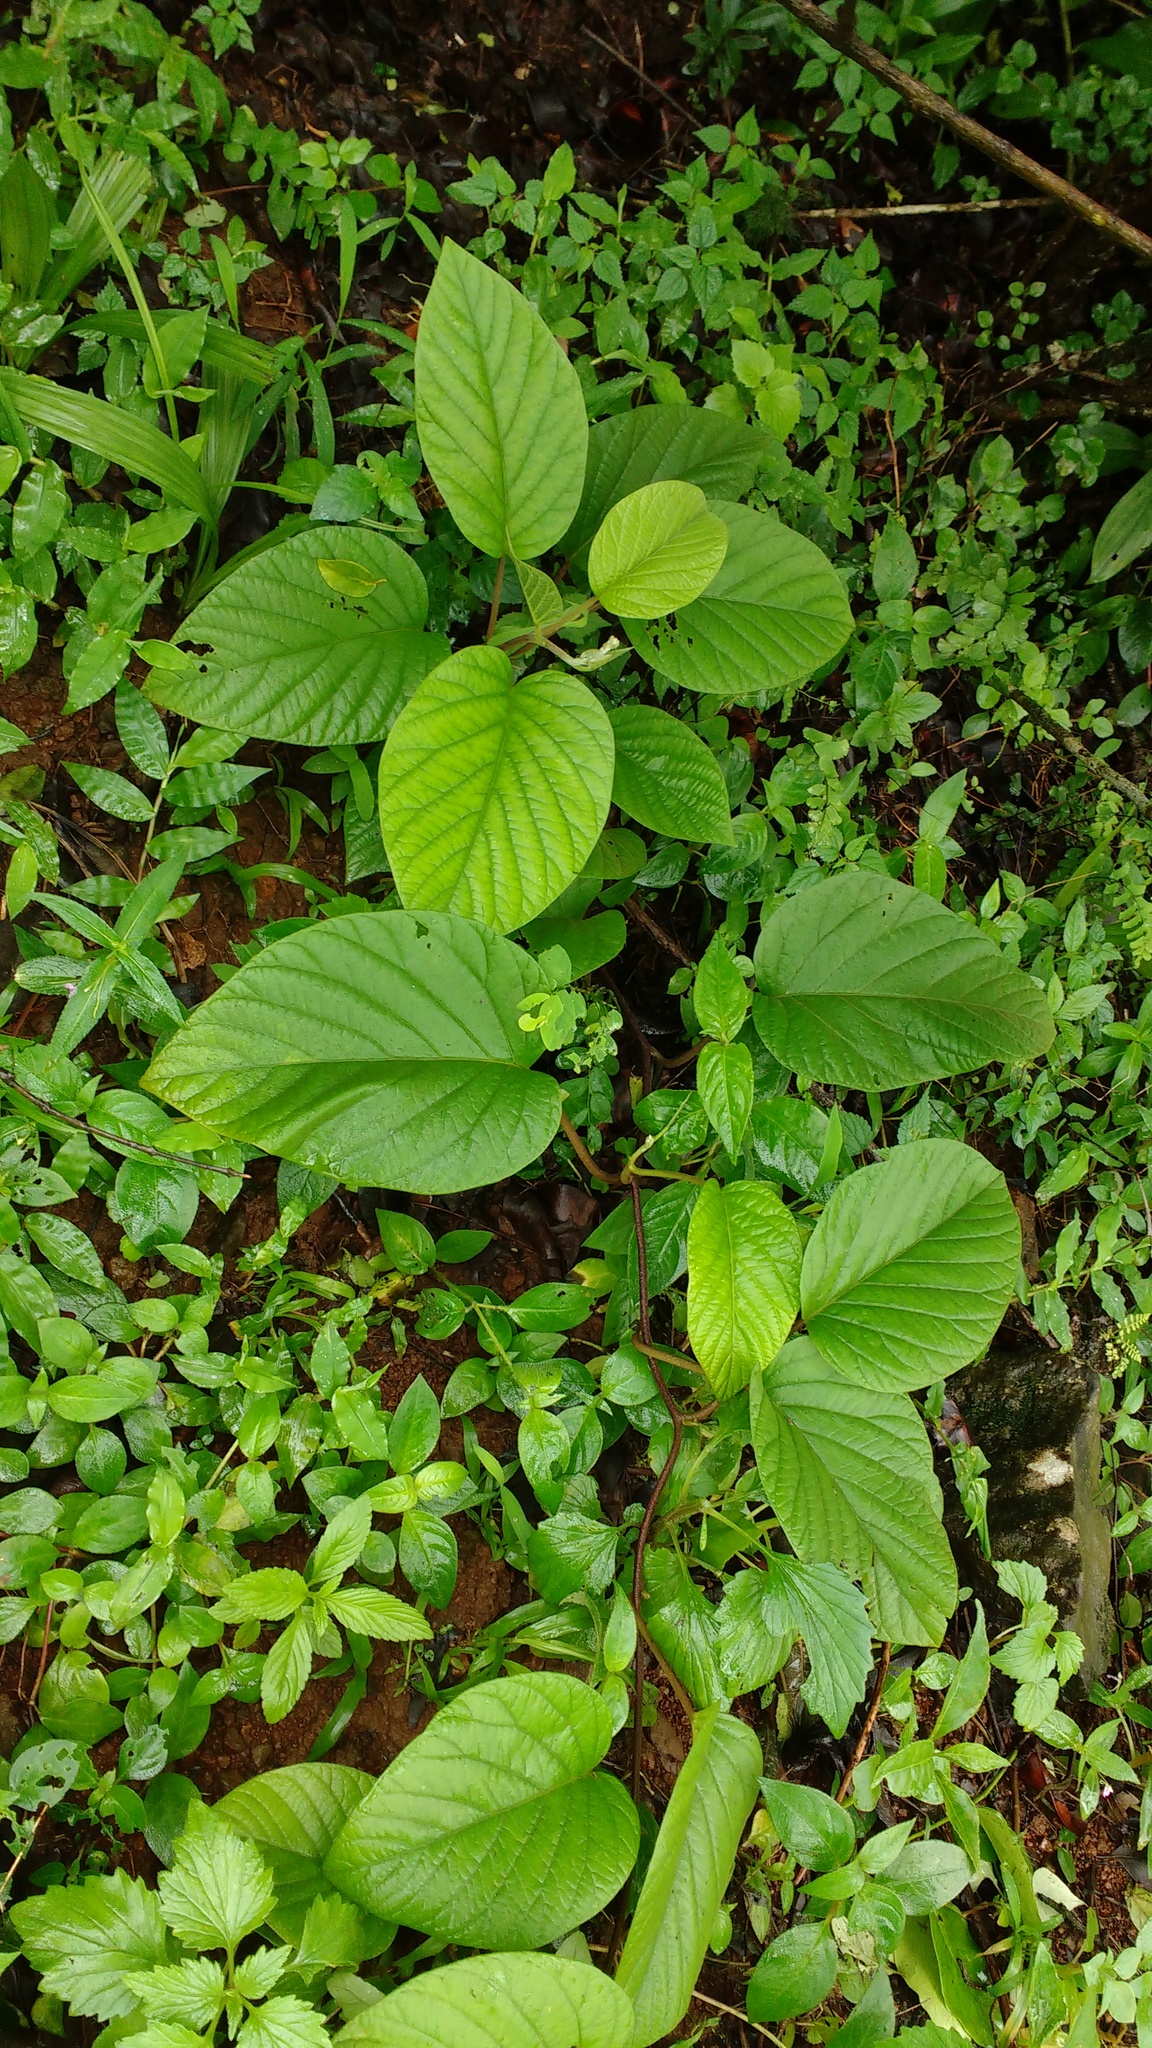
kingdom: Plantae
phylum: Tracheophyta
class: Magnoliopsida
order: Solanales
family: Convolvulaceae
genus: Argyreia
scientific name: Argyreia elliptica
